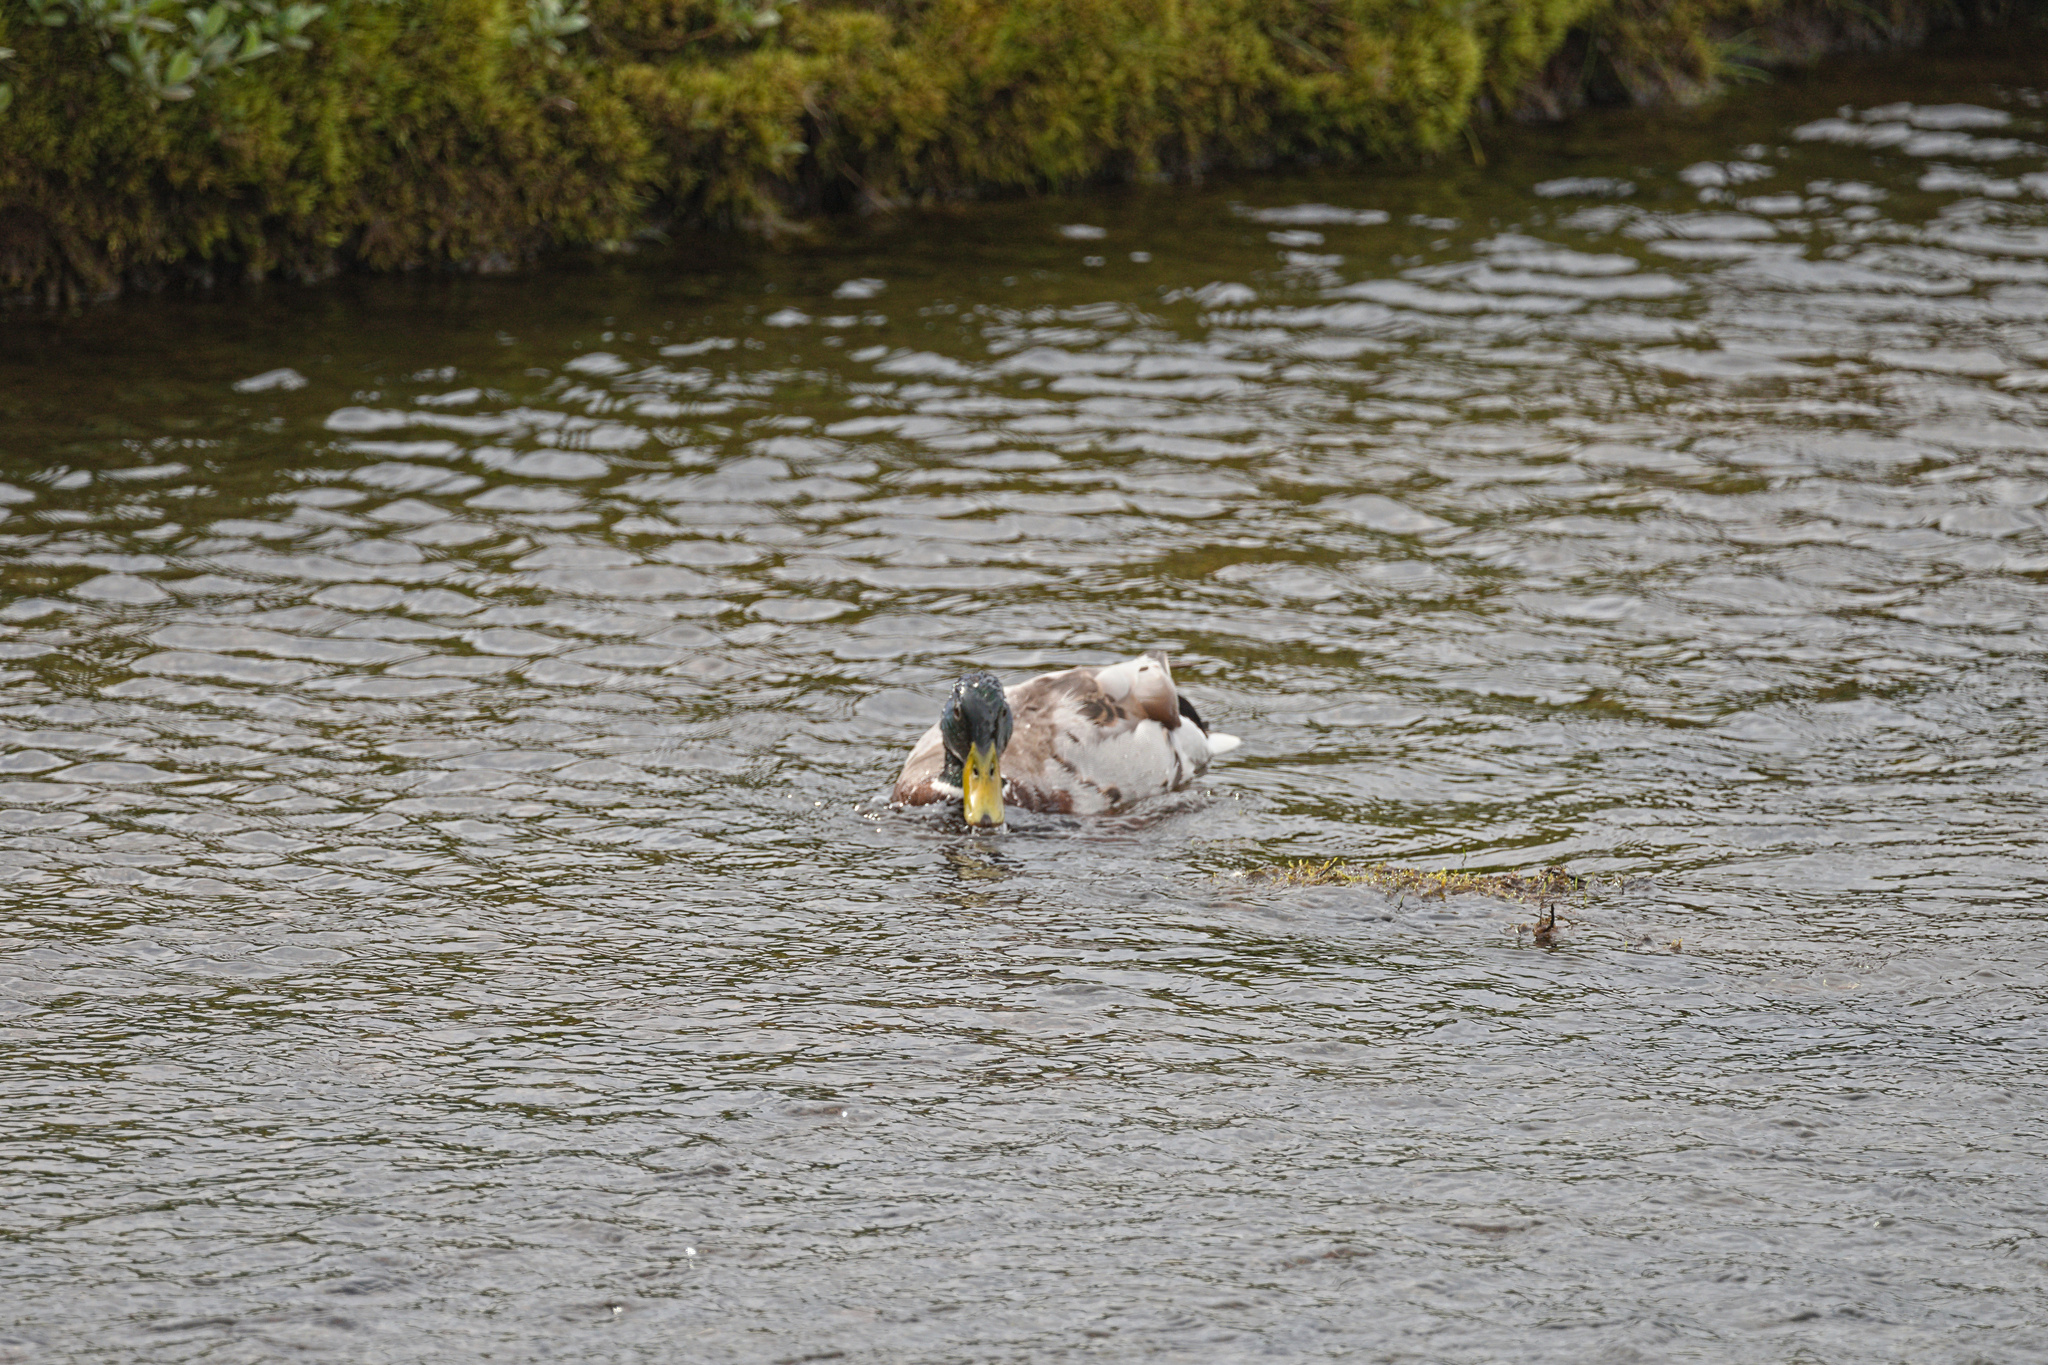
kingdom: Animalia
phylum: Chordata
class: Aves
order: Anseriformes
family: Anatidae
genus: Anas
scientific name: Anas platyrhynchos
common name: Mallard
